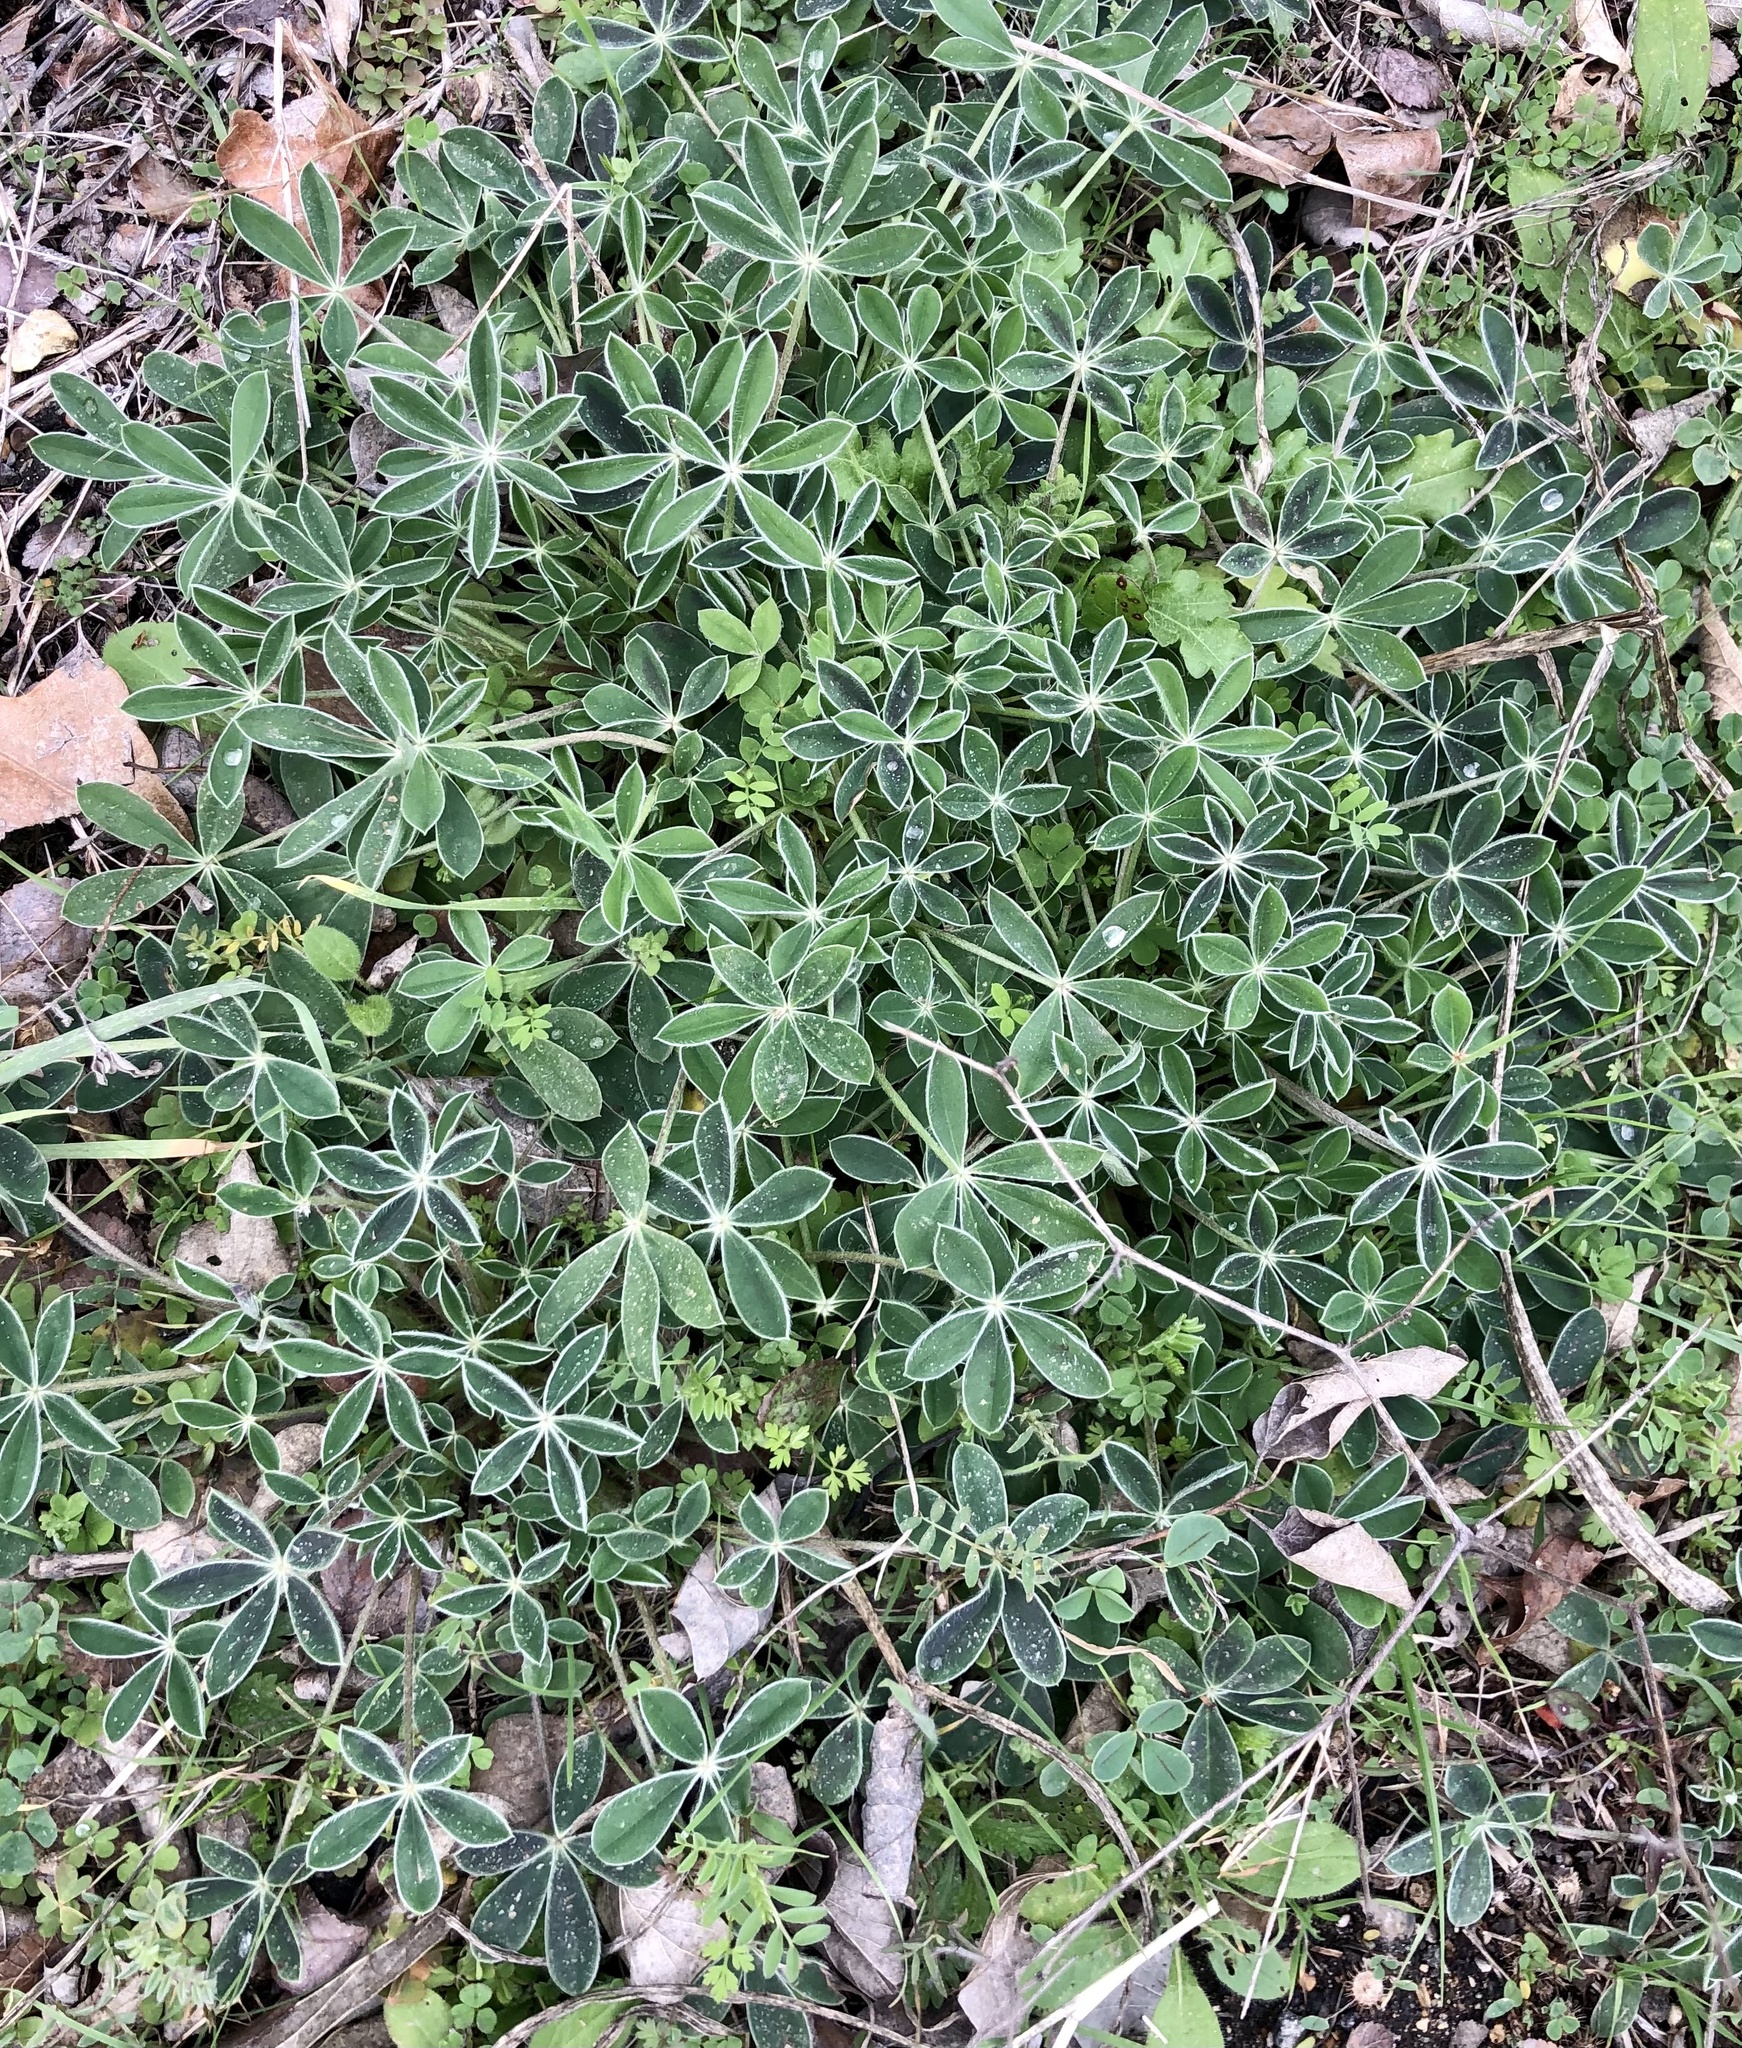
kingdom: Plantae
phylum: Tracheophyta
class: Magnoliopsida
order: Fabales
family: Fabaceae
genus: Lupinus
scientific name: Lupinus texensis
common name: Texas bluebonnet
